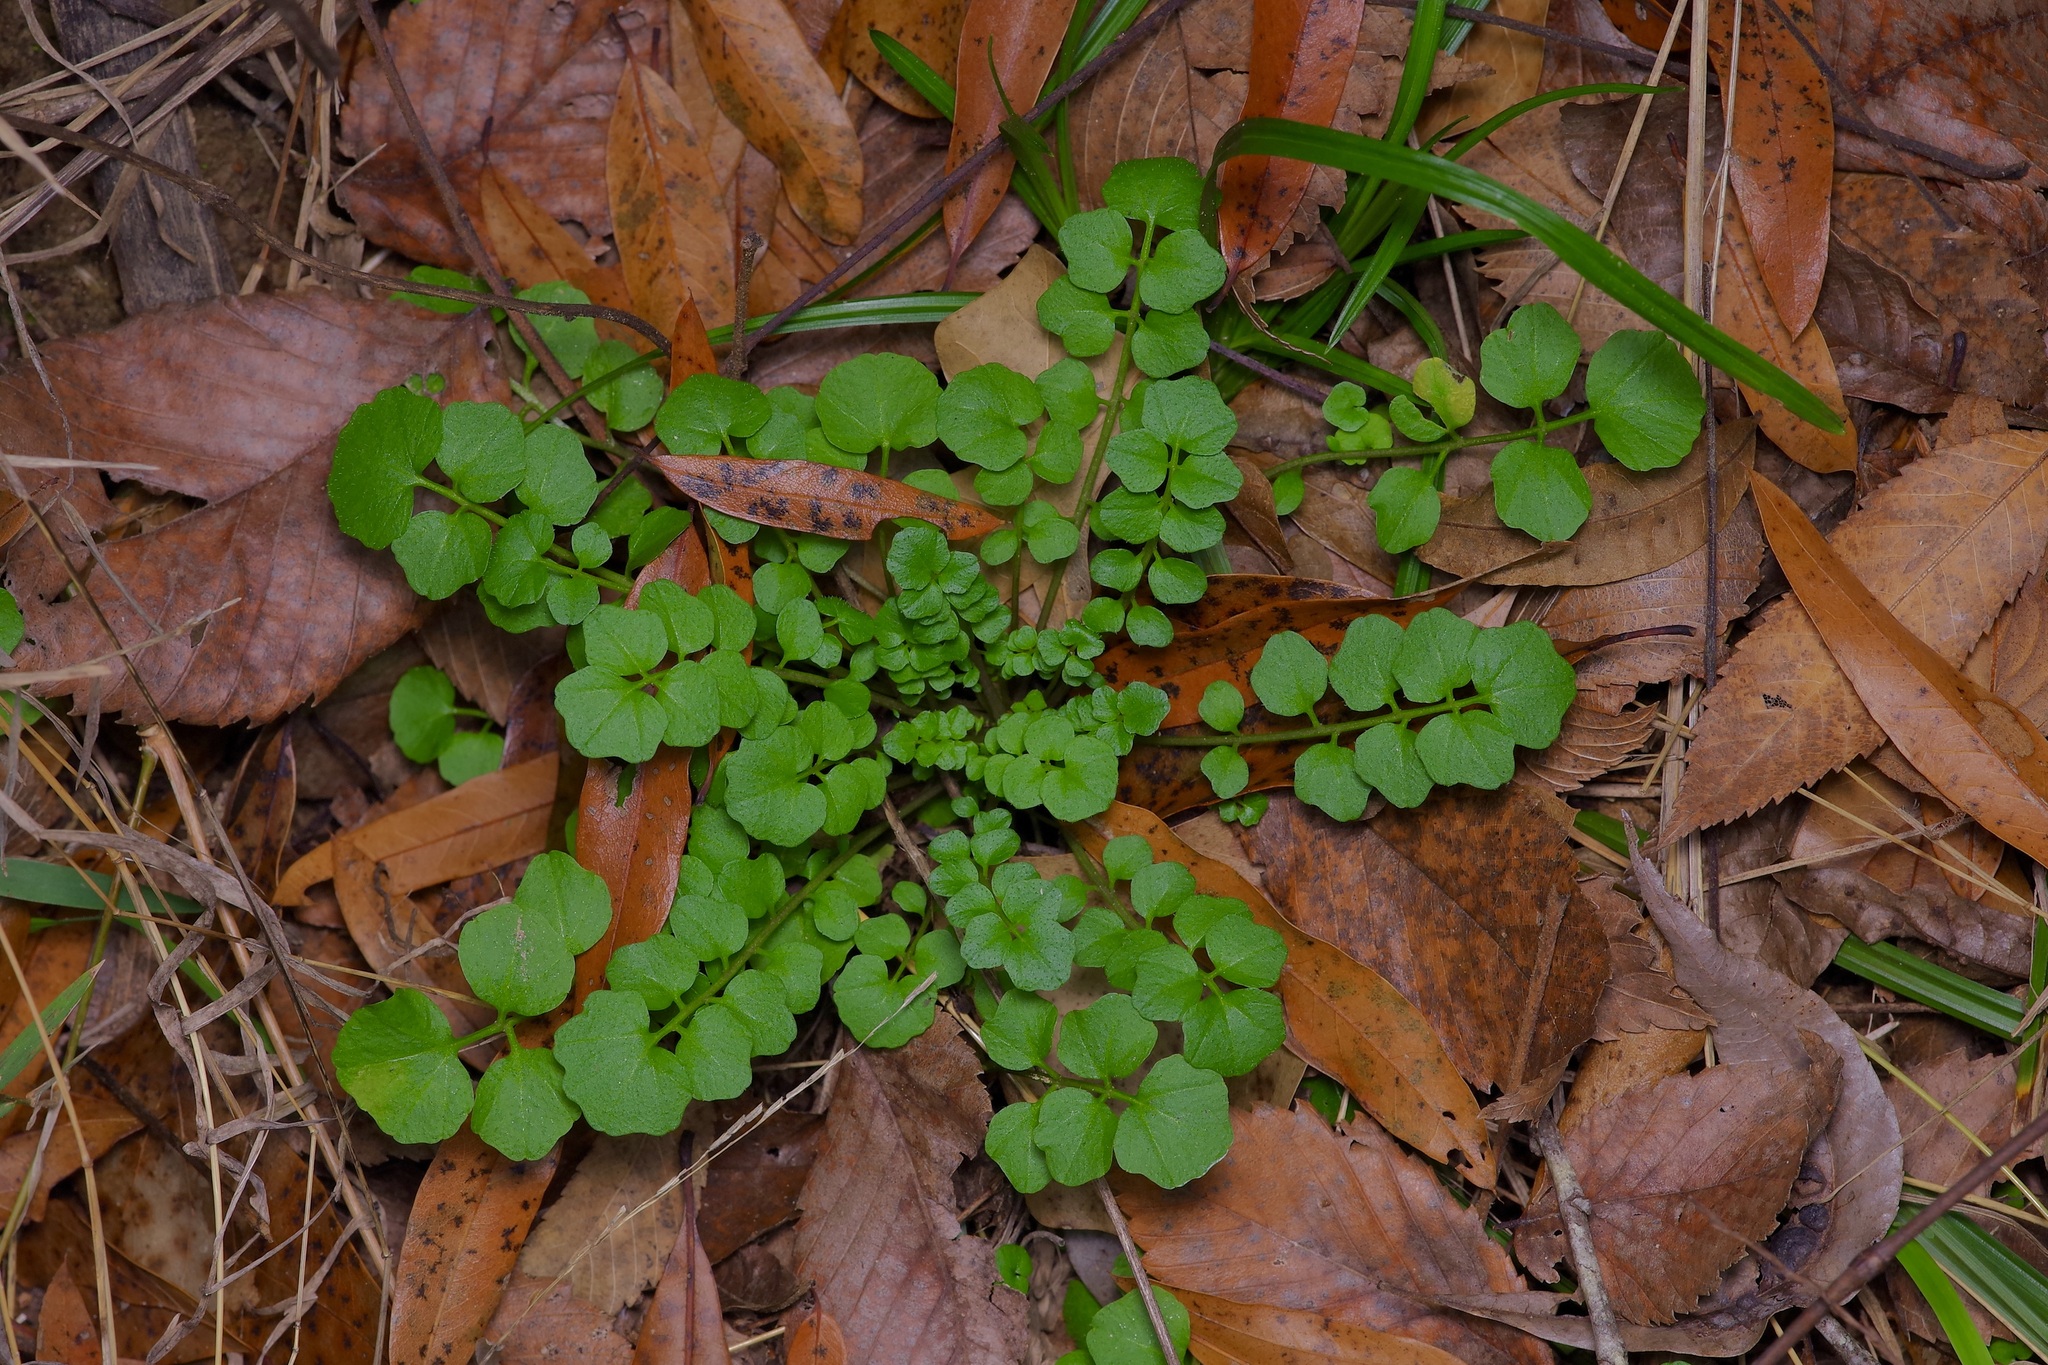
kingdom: Plantae
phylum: Tracheophyta
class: Magnoliopsida
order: Brassicales
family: Brassicaceae
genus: Cardamine
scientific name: Cardamine hirsuta
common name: Hairy bittercress
